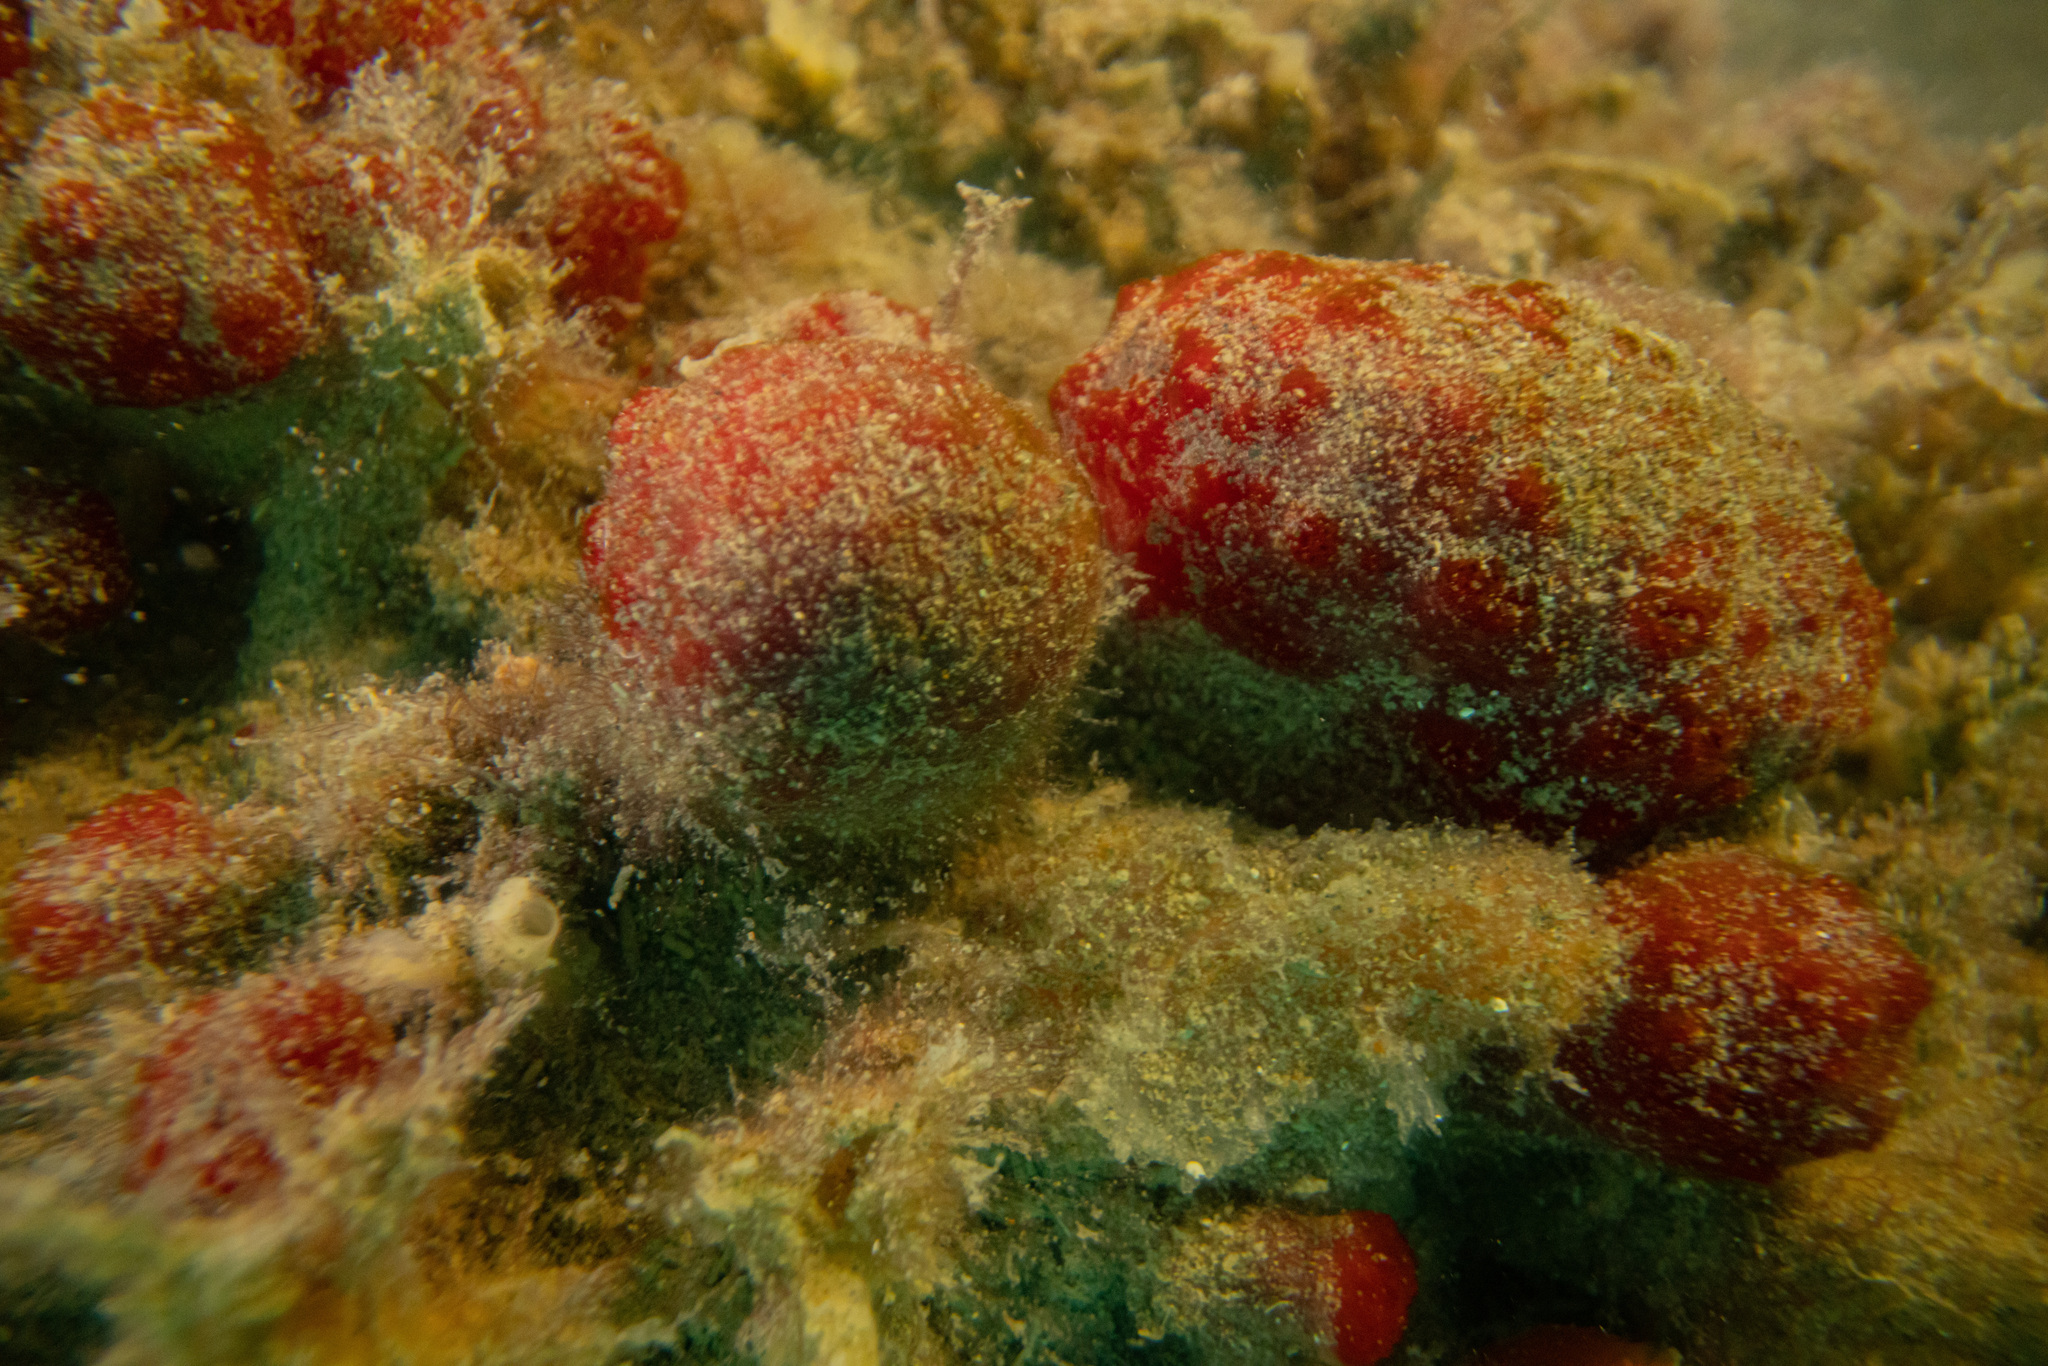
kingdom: Animalia
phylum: Chordata
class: Ascidiacea
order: Aplousobranchia
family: Polyclinidae
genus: Synoicum
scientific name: Synoicum kuranui
